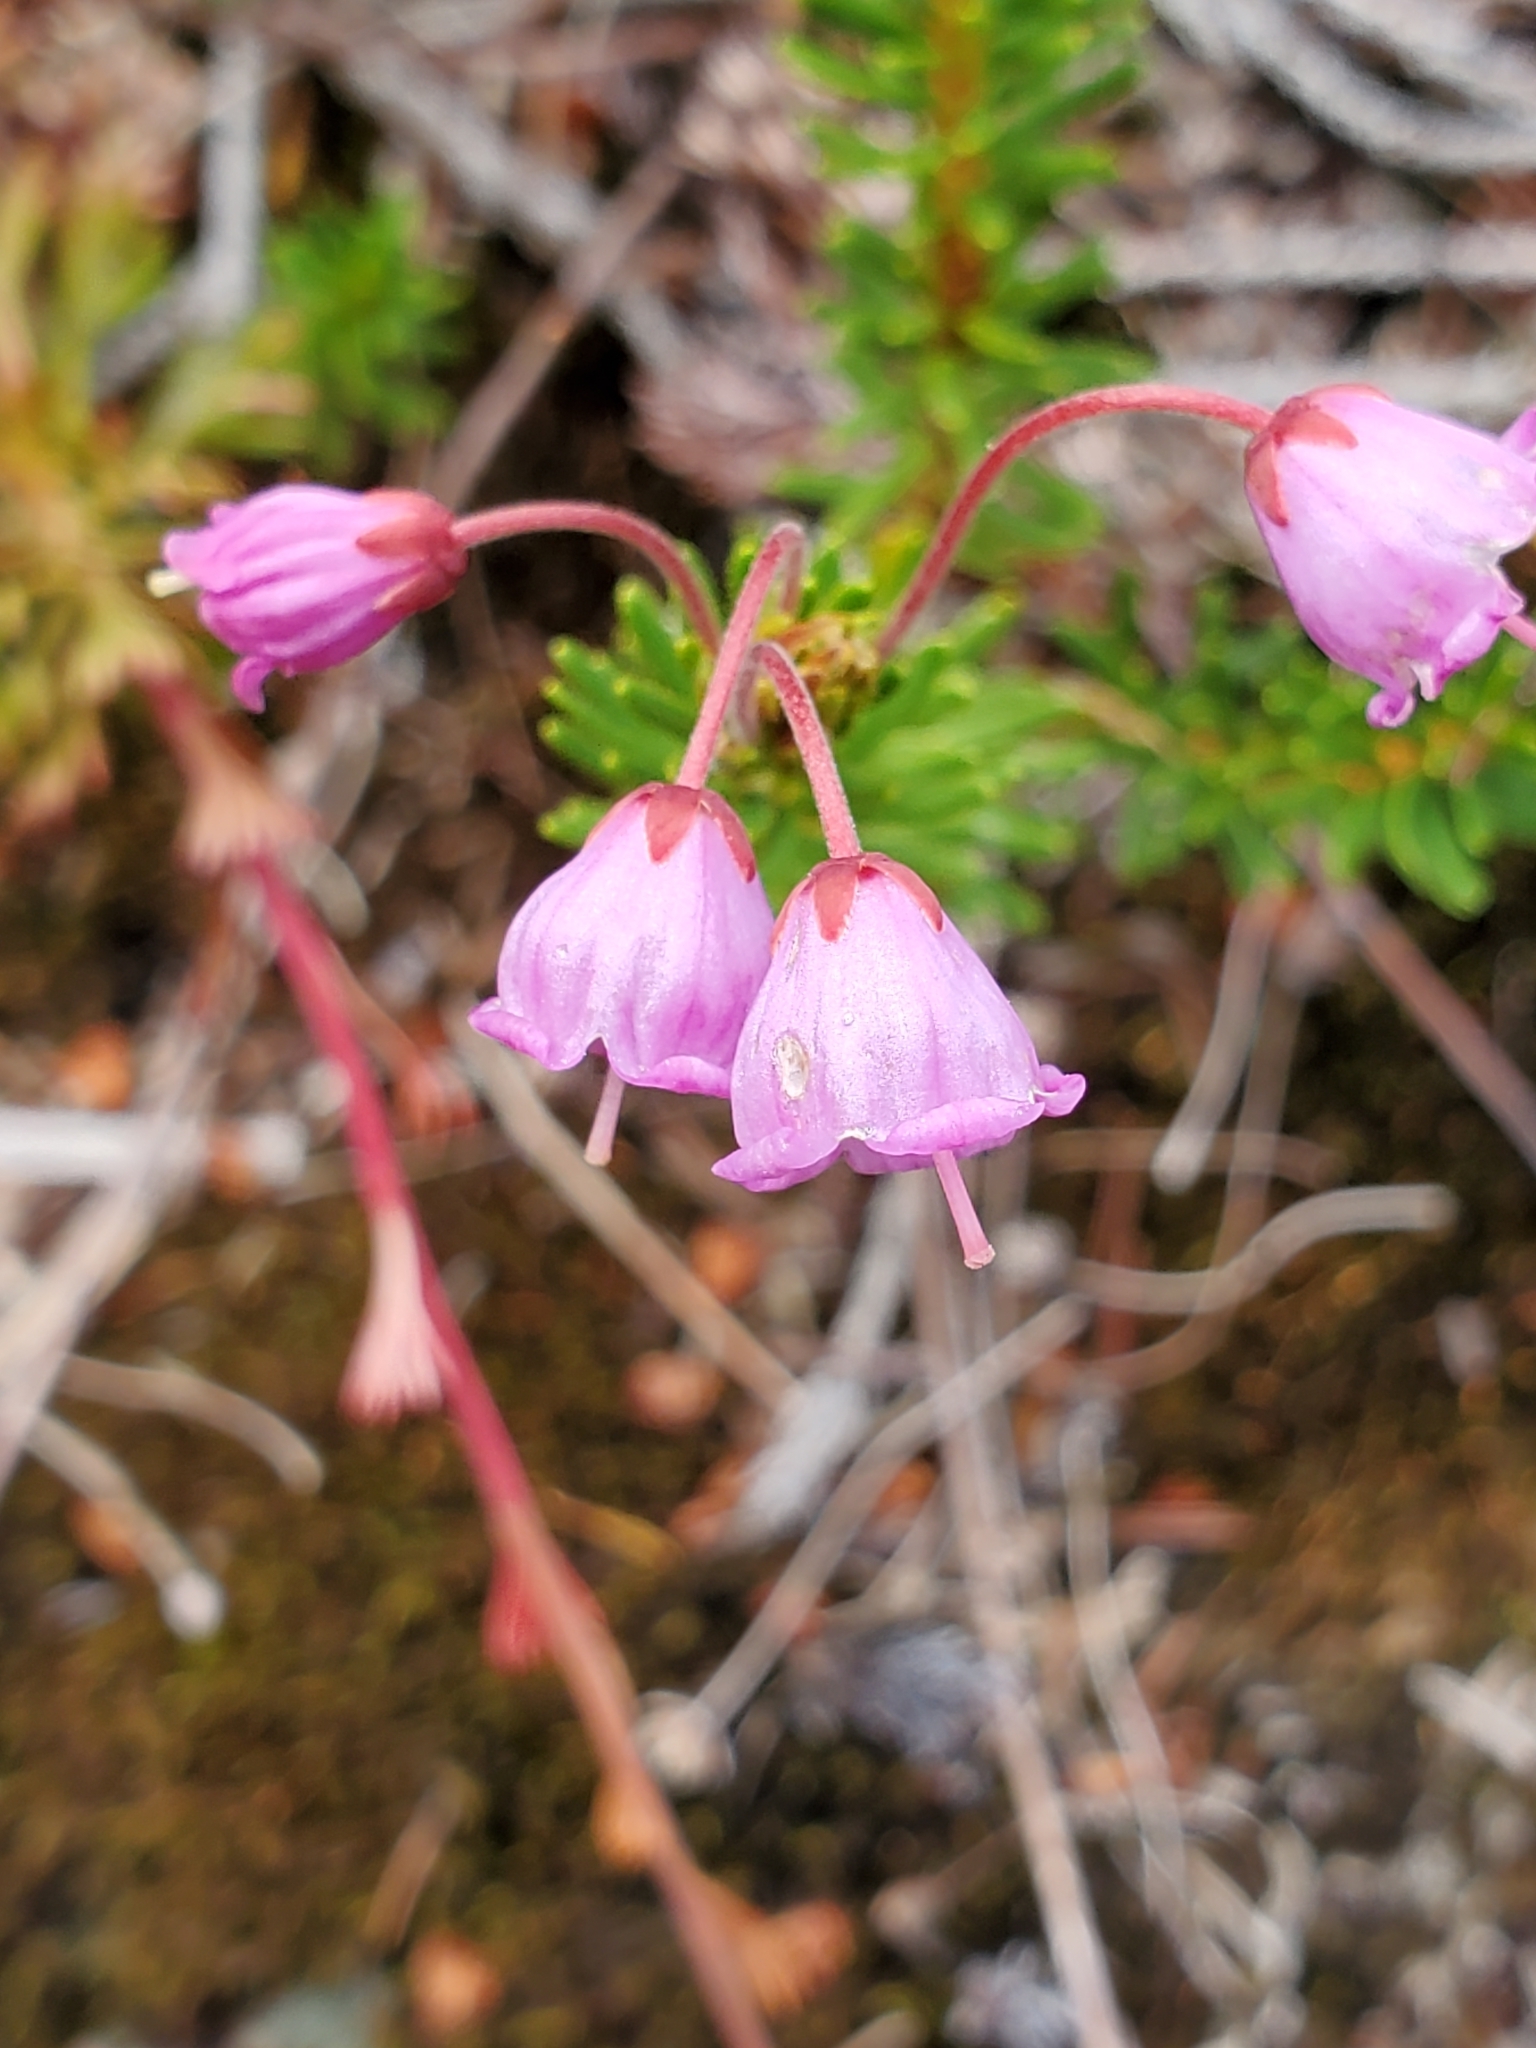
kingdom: Plantae
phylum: Tracheophyta
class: Magnoliopsida
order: Ericales
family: Ericaceae
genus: Phyllodoce
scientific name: Phyllodoce empetriformis
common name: Pink mountain heather
